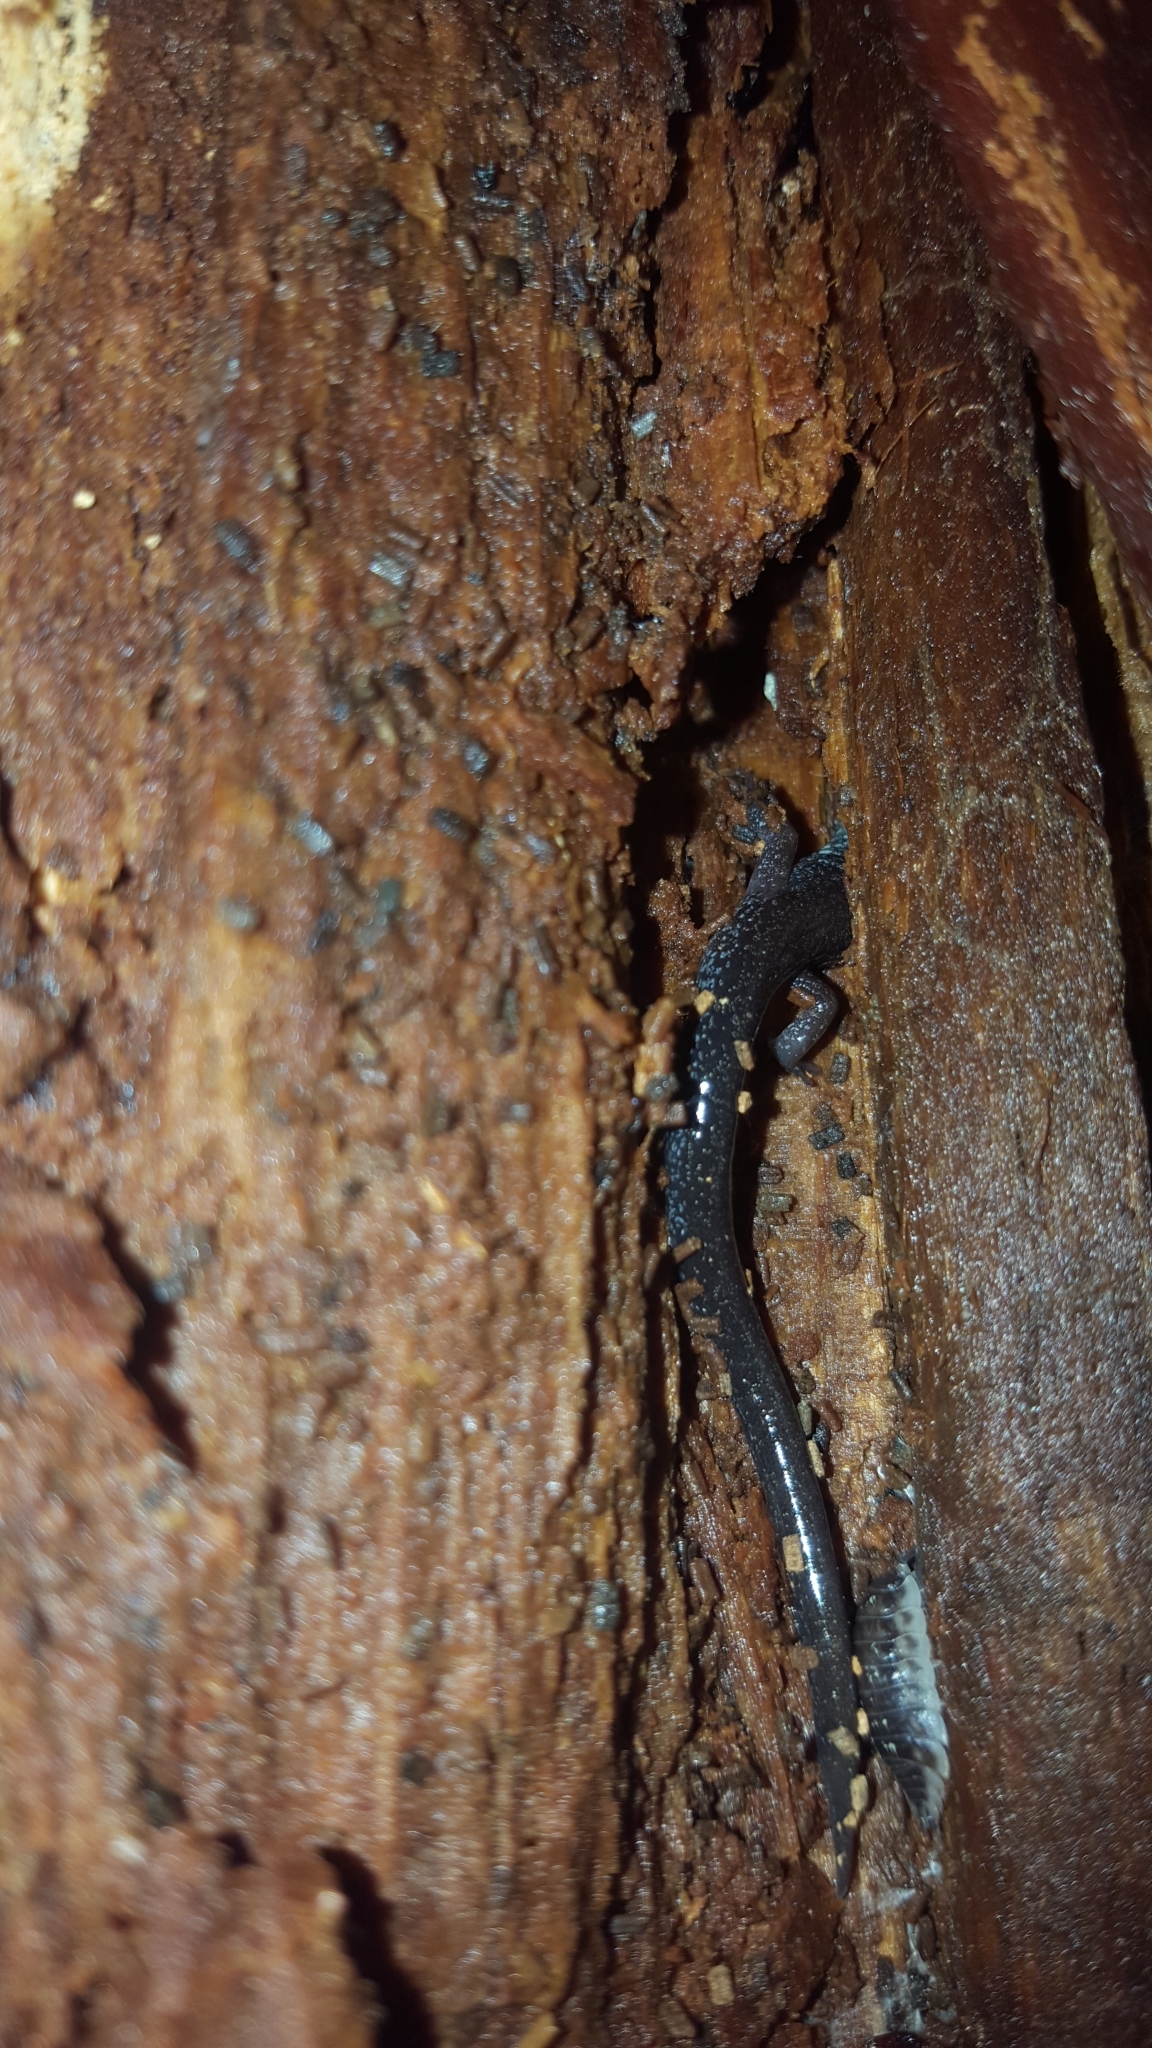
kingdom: Animalia
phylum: Chordata
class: Amphibia
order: Caudata
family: Plethodontidae
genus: Plethodon
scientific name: Plethodon cinereus
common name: Redback salamander
